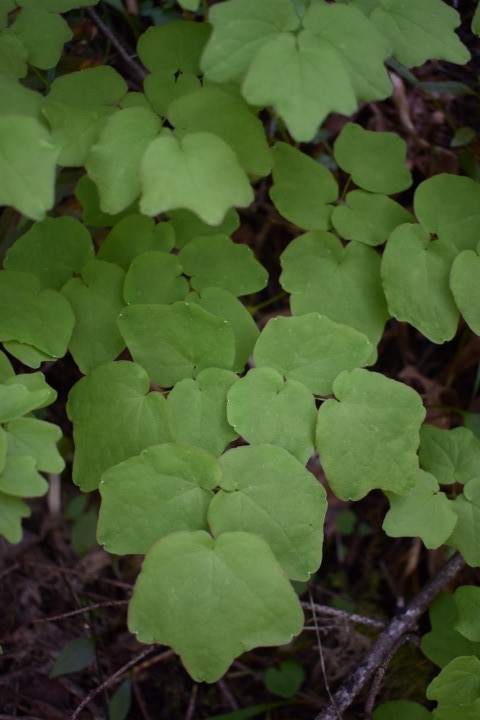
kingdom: Plantae
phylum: Tracheophyta
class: Magnoliopsida
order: Ranunculales
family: Berberidaceae
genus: Vancouveria
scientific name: Vancouveria hexandra
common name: Northern inside-out-flower
